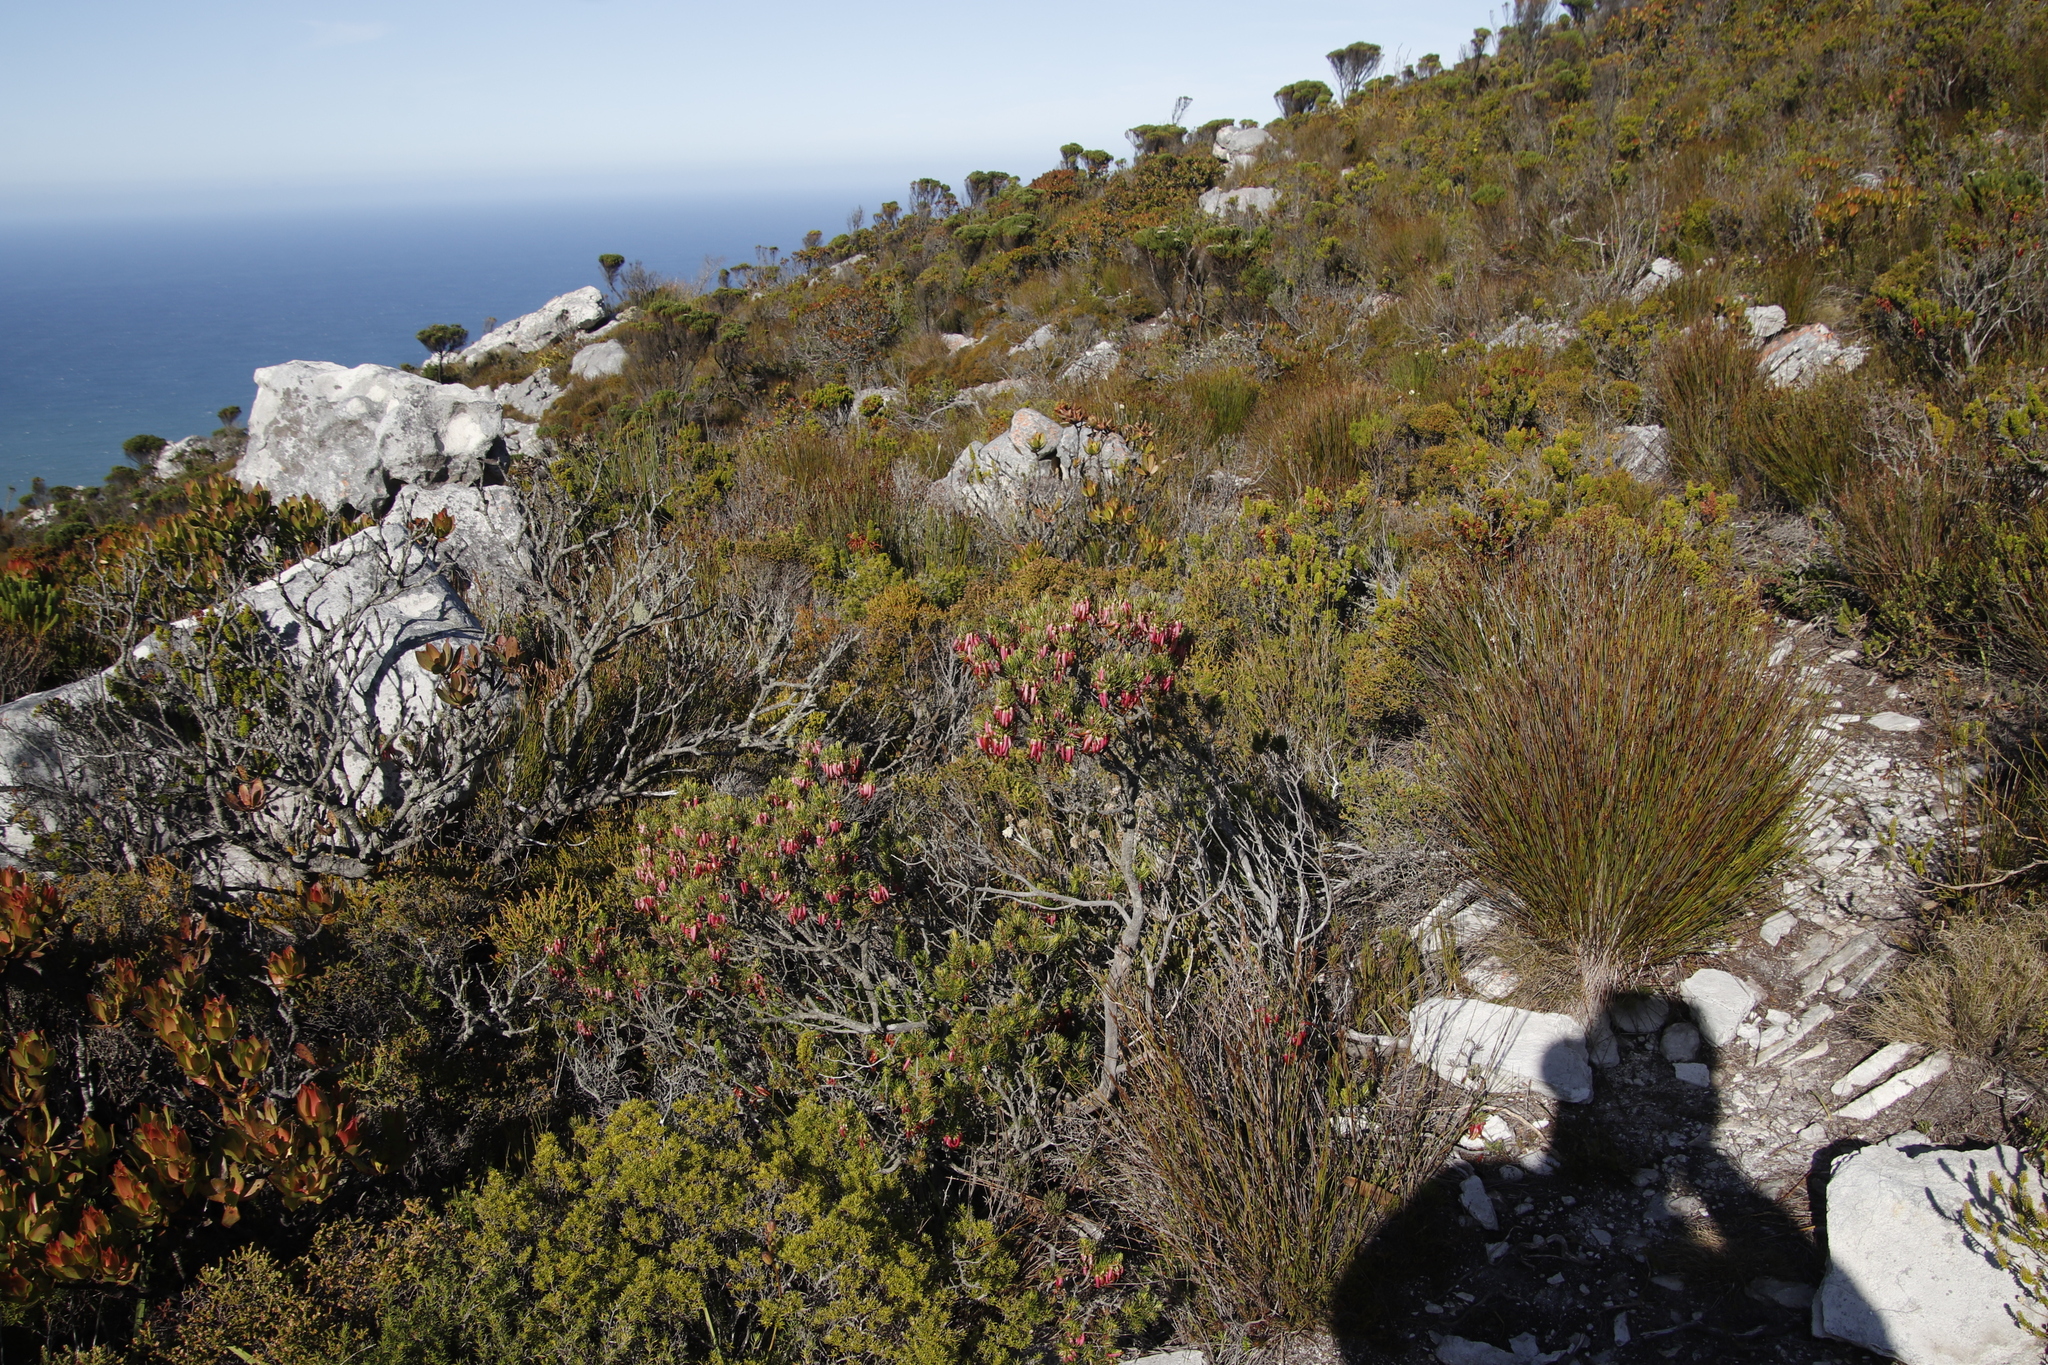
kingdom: Plantae
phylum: Tracheophyta
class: Magnoliopsida
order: Ericales
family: Ericaceae
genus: Erica
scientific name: Erica plukenetii
